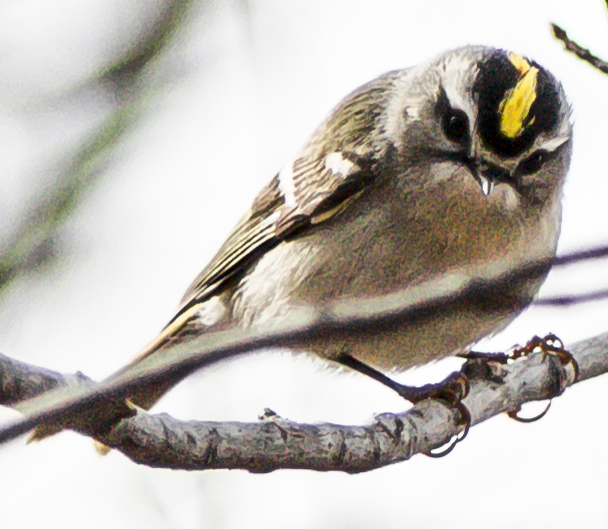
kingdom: Animalia
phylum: Chordata
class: Aves
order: Passeriformes
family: Regulidae
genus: Regulus
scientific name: Regulus satrapa
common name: Golden-crowned kinglet
